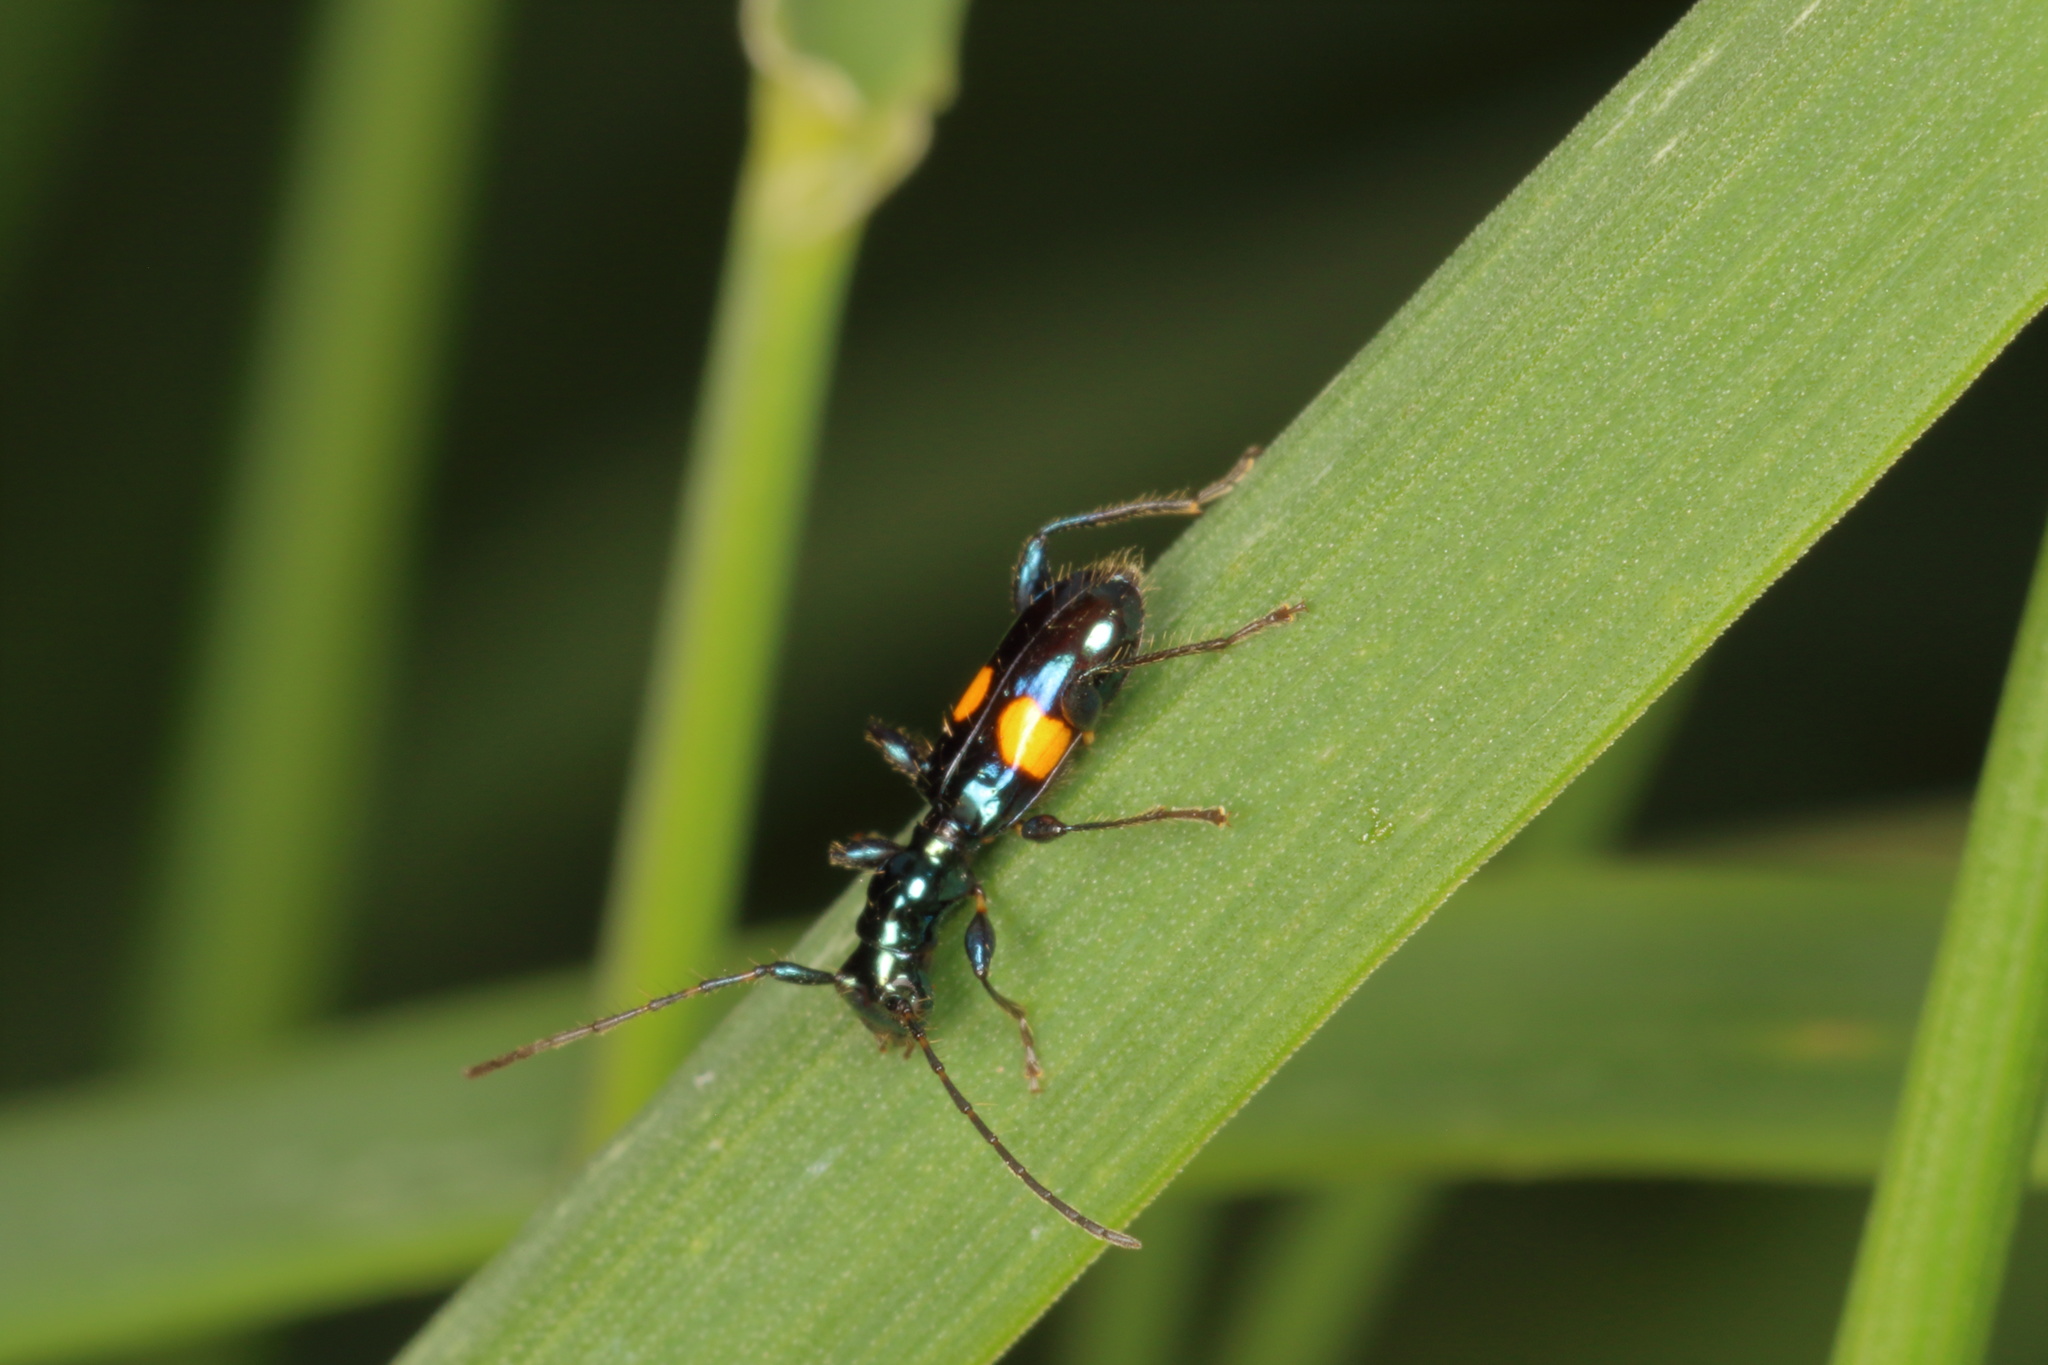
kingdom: Animalia
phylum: Arthropoda
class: Insecta
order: Coleoptera
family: Cerambycidae
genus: Zorion
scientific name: Zorion guttigerum
